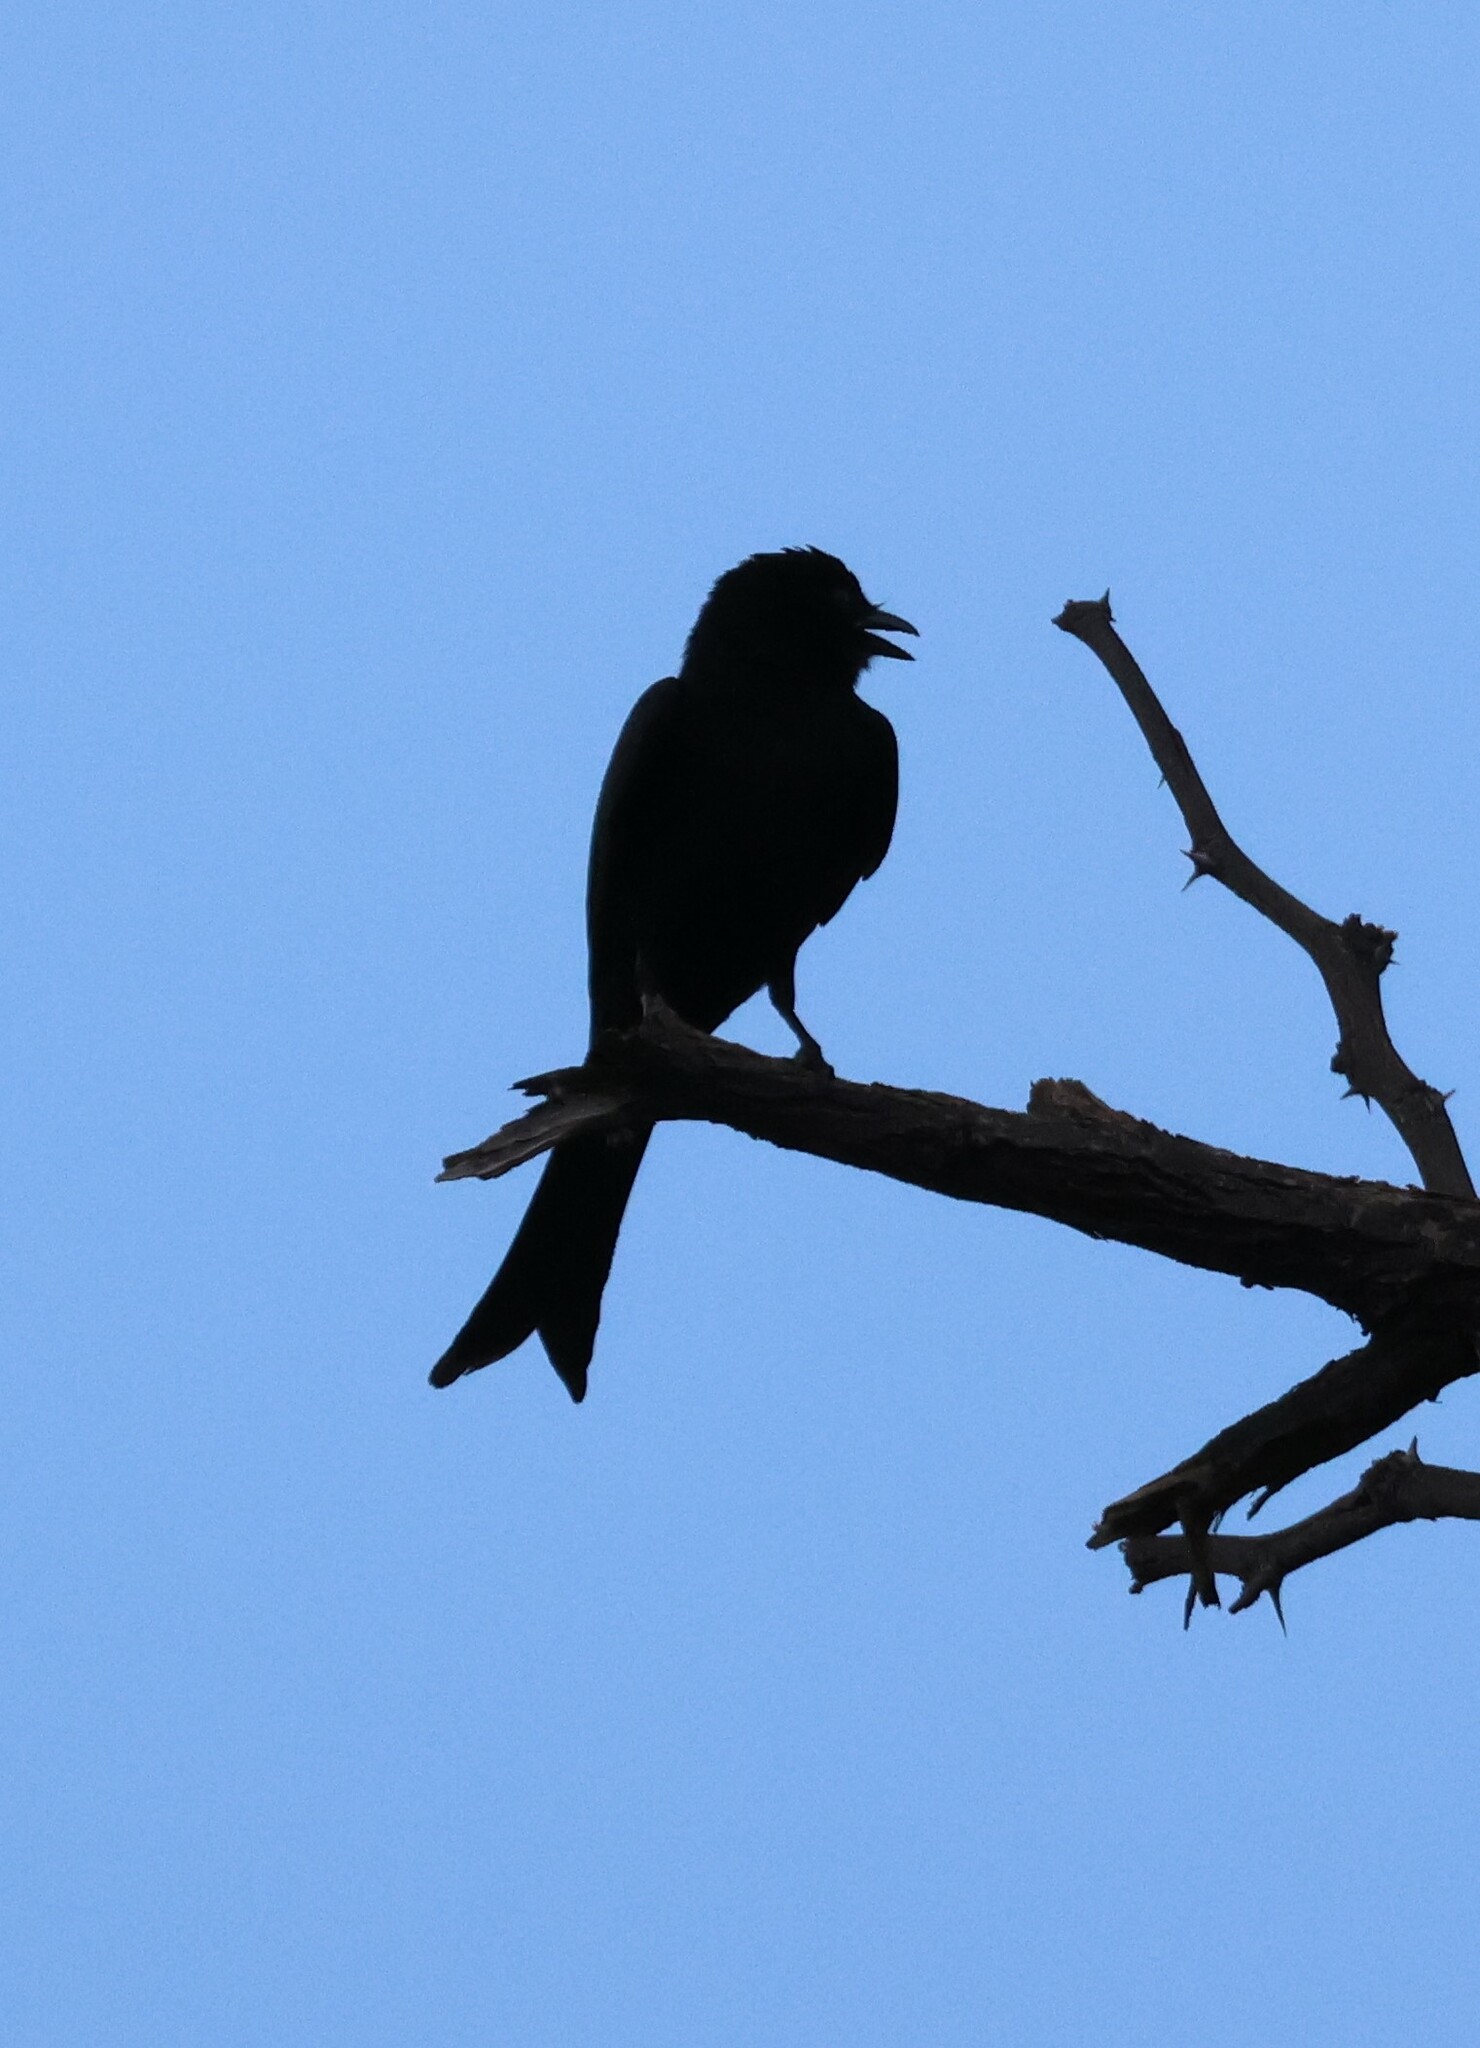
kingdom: Animalia
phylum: Chordata
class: Aves
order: Passeriformes
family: Dicruridae
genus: Dicrurus
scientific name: Dicrurus adsimilis
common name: Fork-tailed drongo
